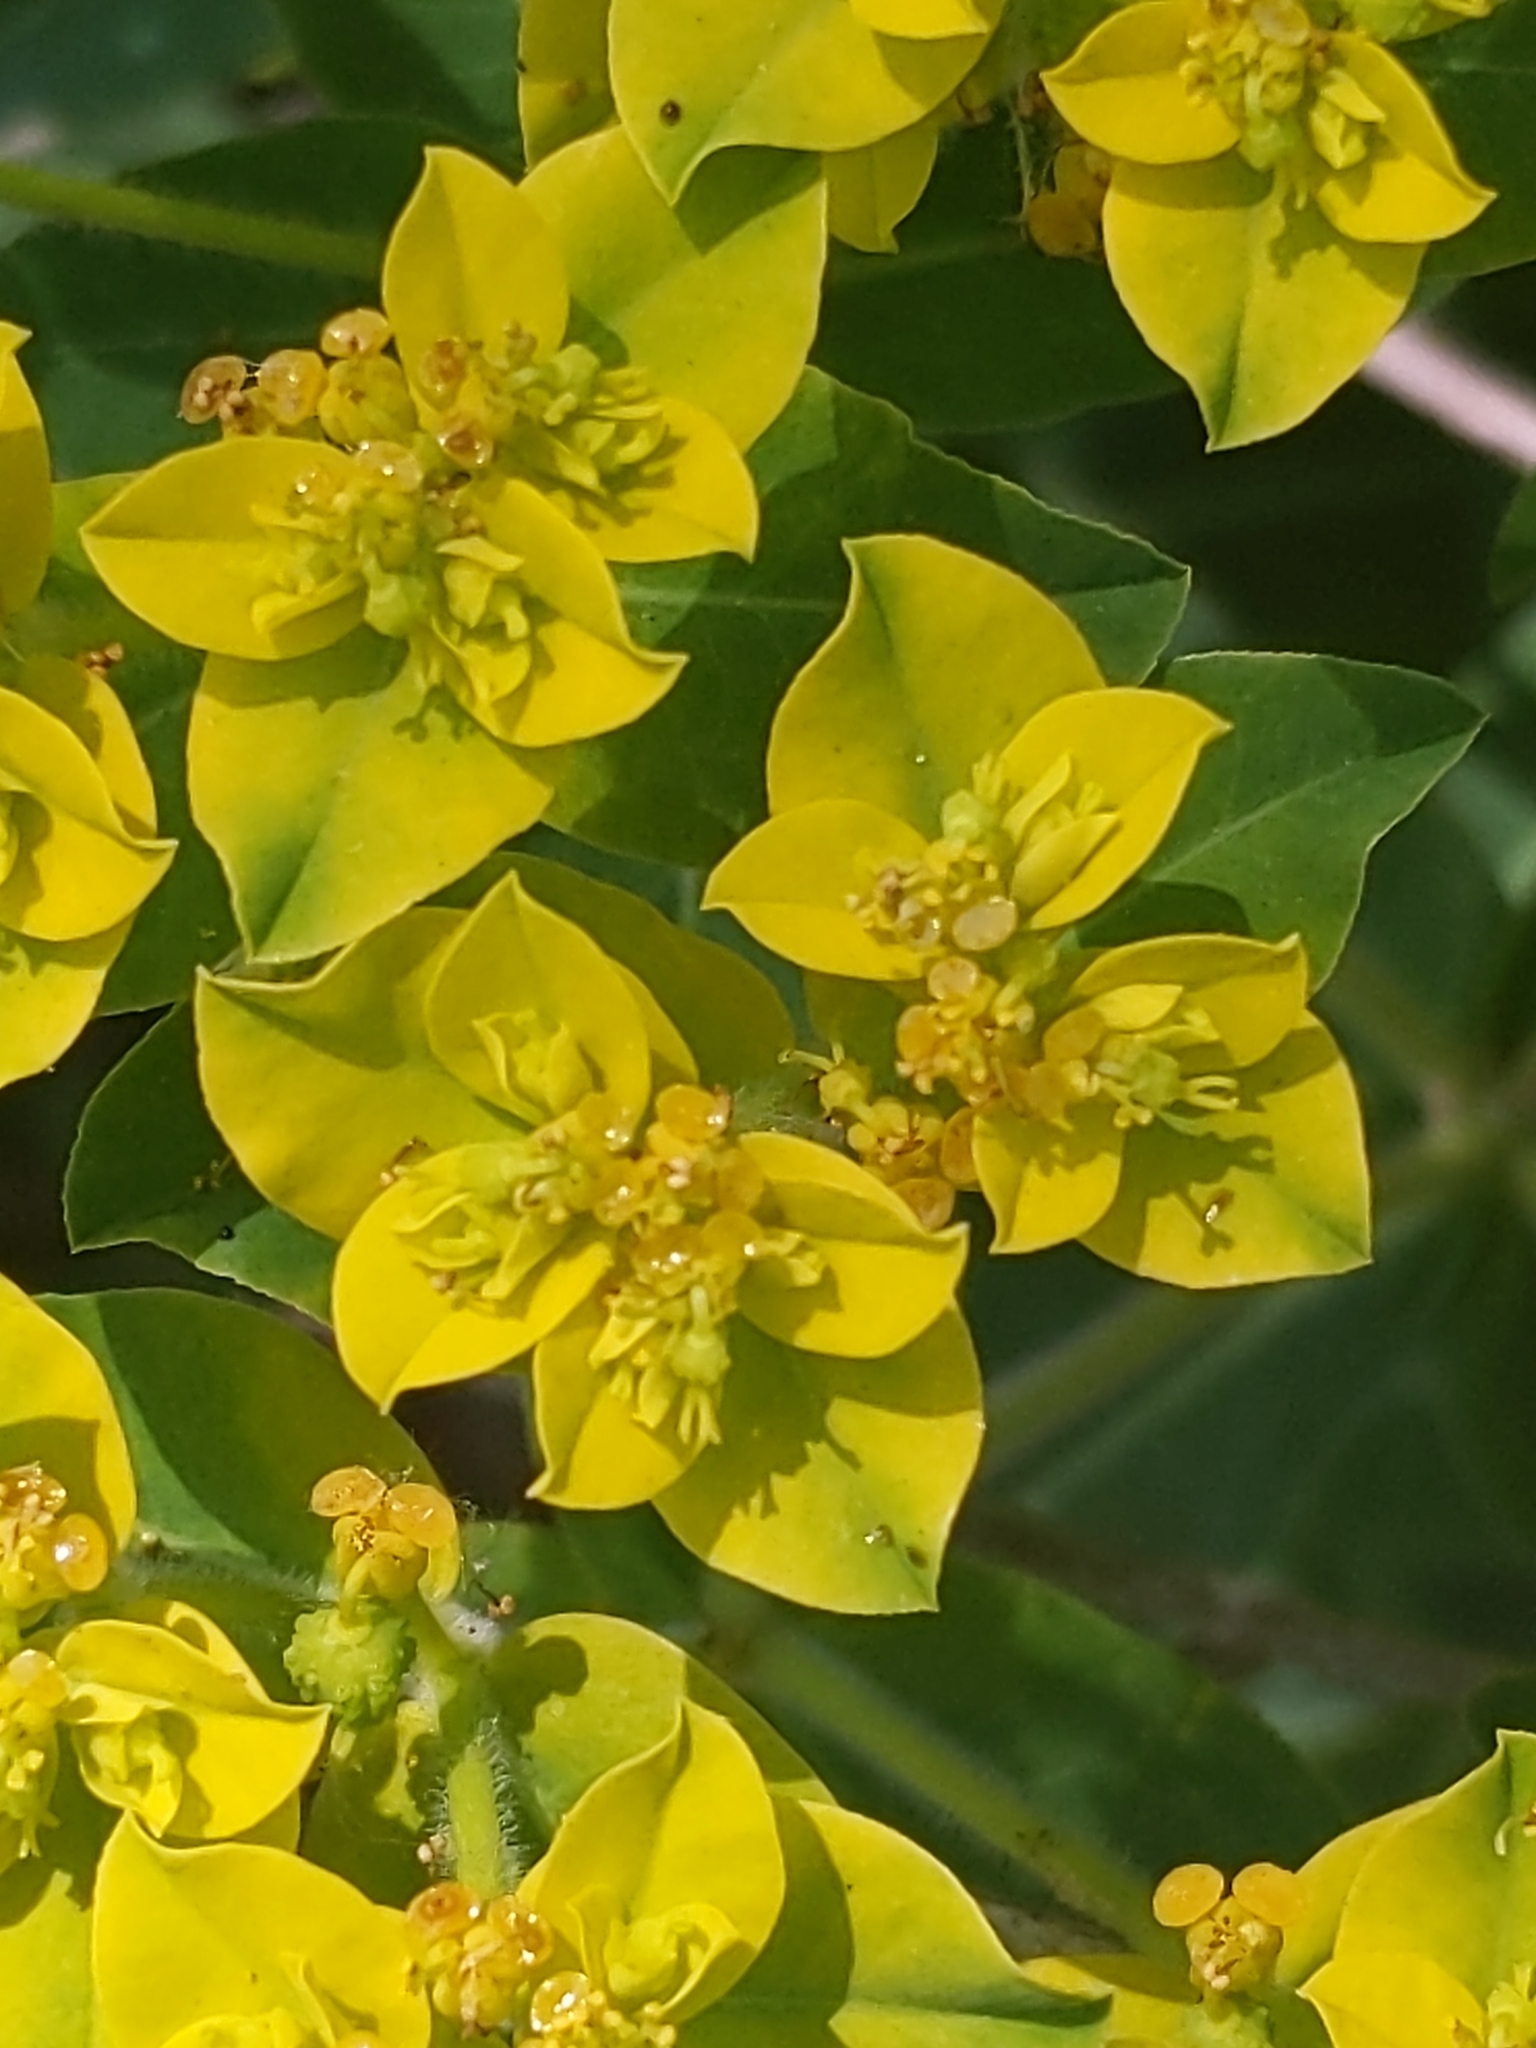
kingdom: Plantae
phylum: Tracheophyta
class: Magnoliopsida
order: Malpighiales
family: Euphorbiaceae
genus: Euphorbia
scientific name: Euphorbia oblongata
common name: Balkan spurge
